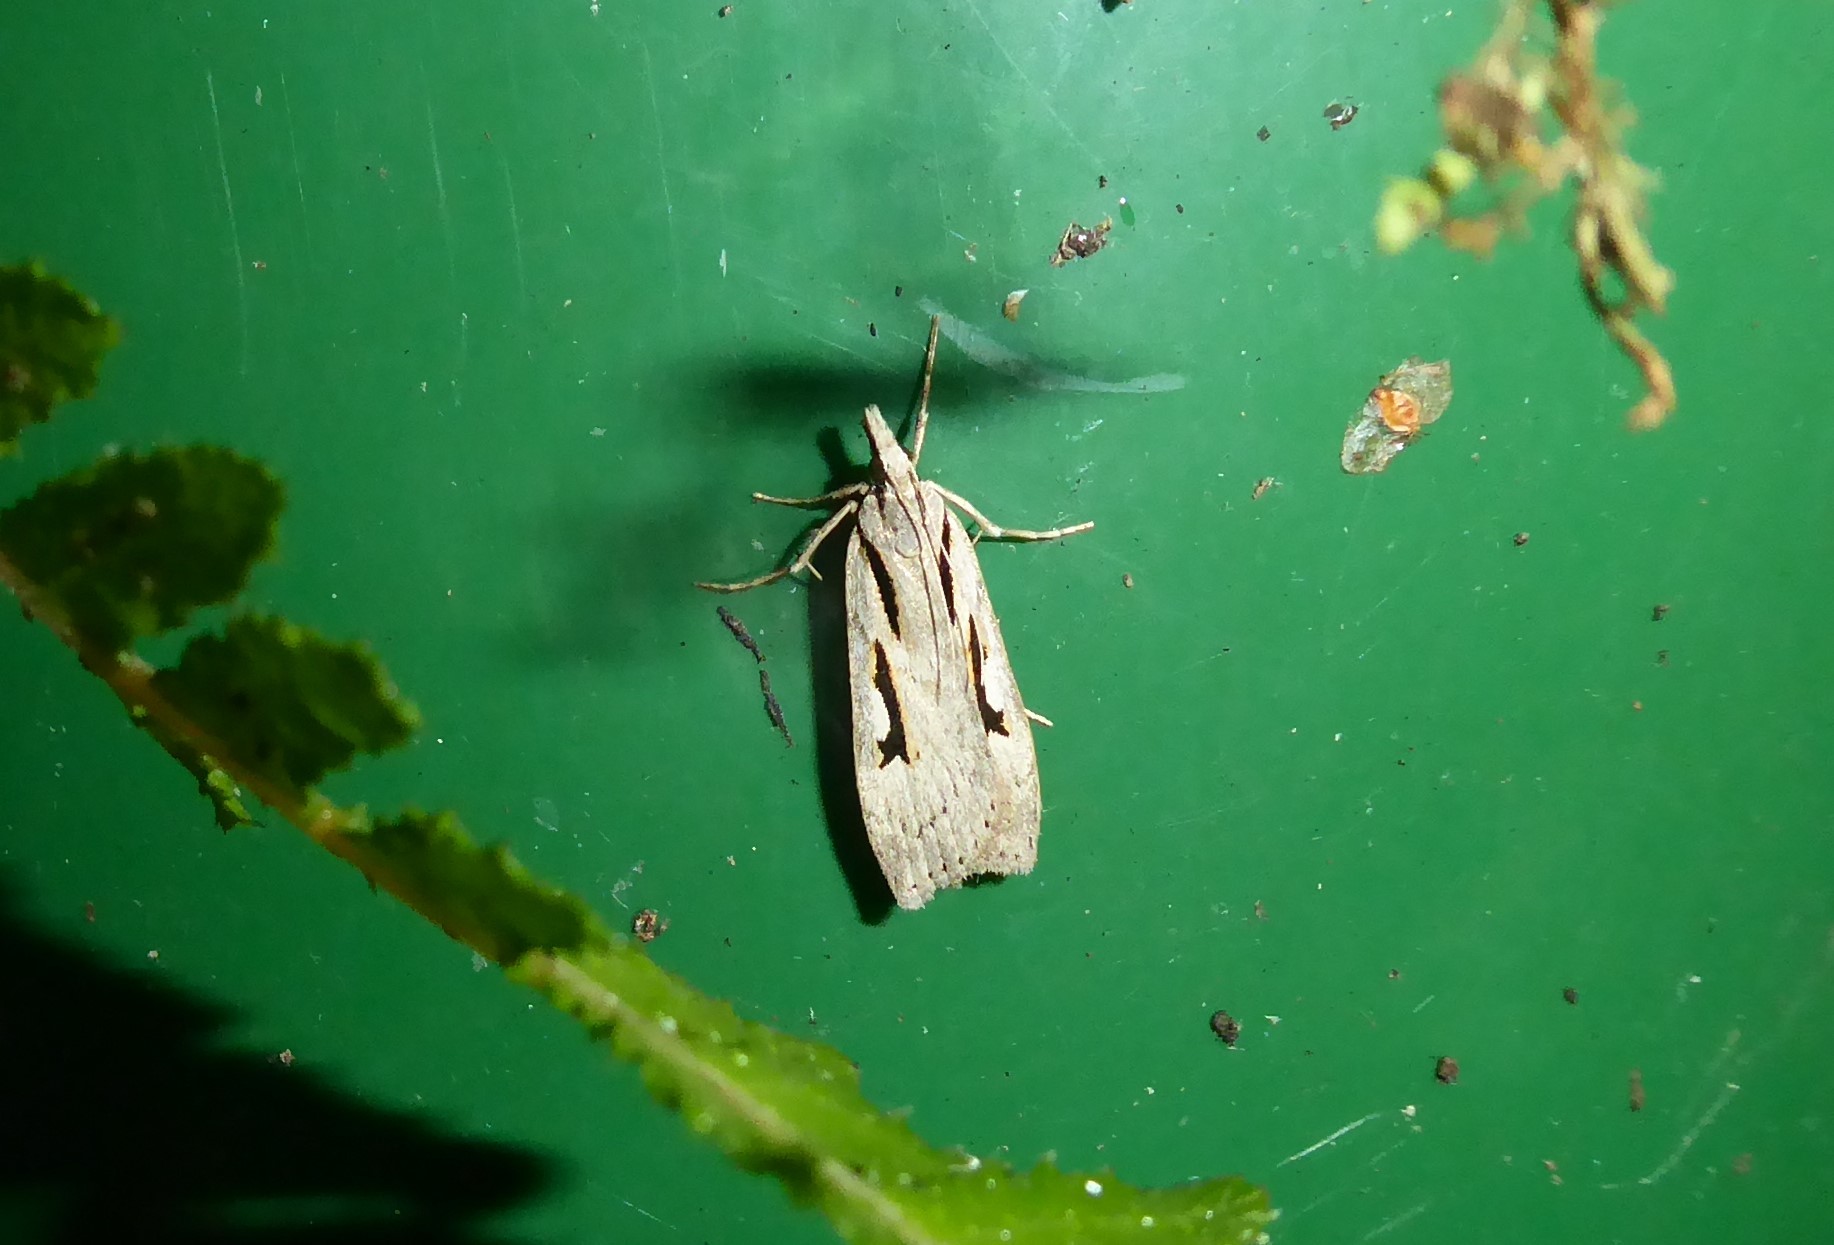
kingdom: Animalia
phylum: Arthropoda
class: Insecta
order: Lepidoptera
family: Crambidae
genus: Scoparia
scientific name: Scoparia rotuellus
